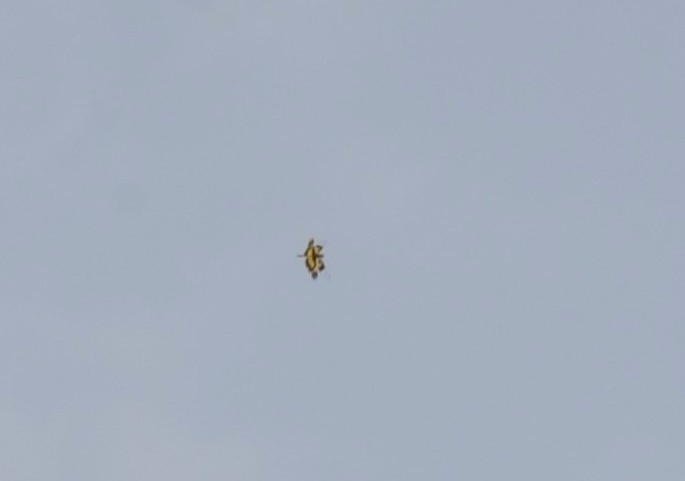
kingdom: Animalia
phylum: Arthropoda
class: Insecta
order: Odonata
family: Libellulidae
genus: Rhyothemis
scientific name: Rhyothemis variegata
